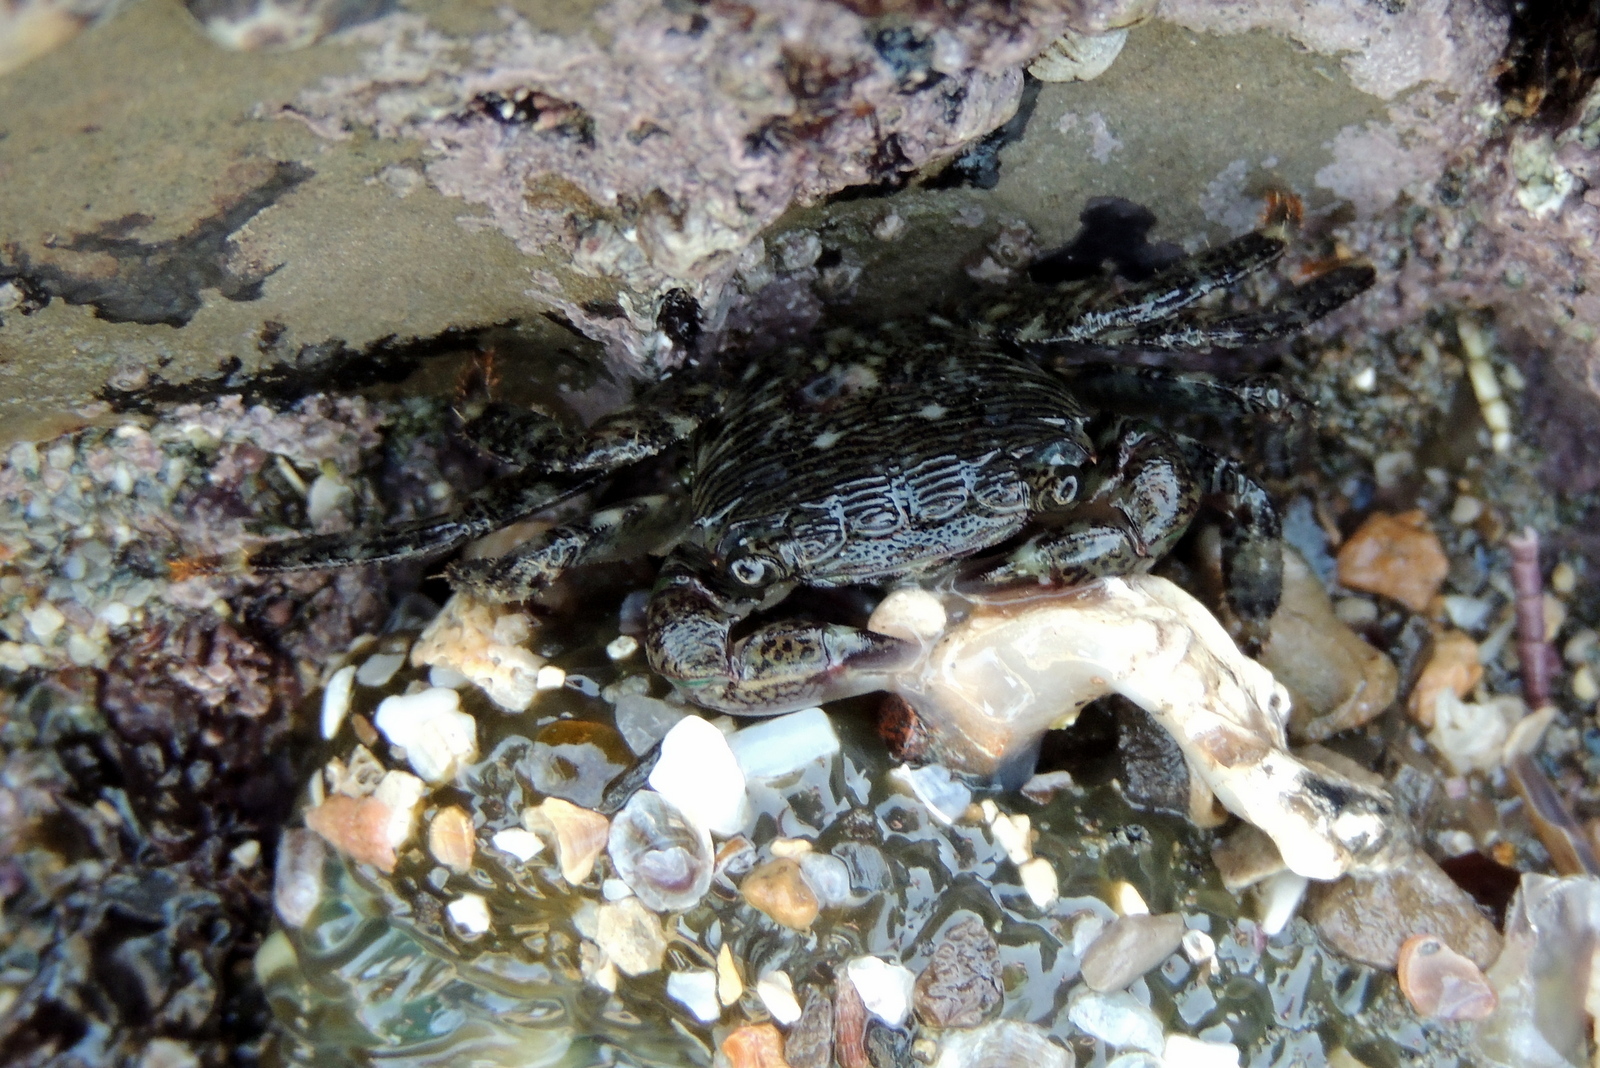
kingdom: Animalia
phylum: Arthropoda
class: Malacostraca
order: Decapoda
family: Grapsidae
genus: Pachygrapsus
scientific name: Pachygrapsus crassipes
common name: Striped shore crab
